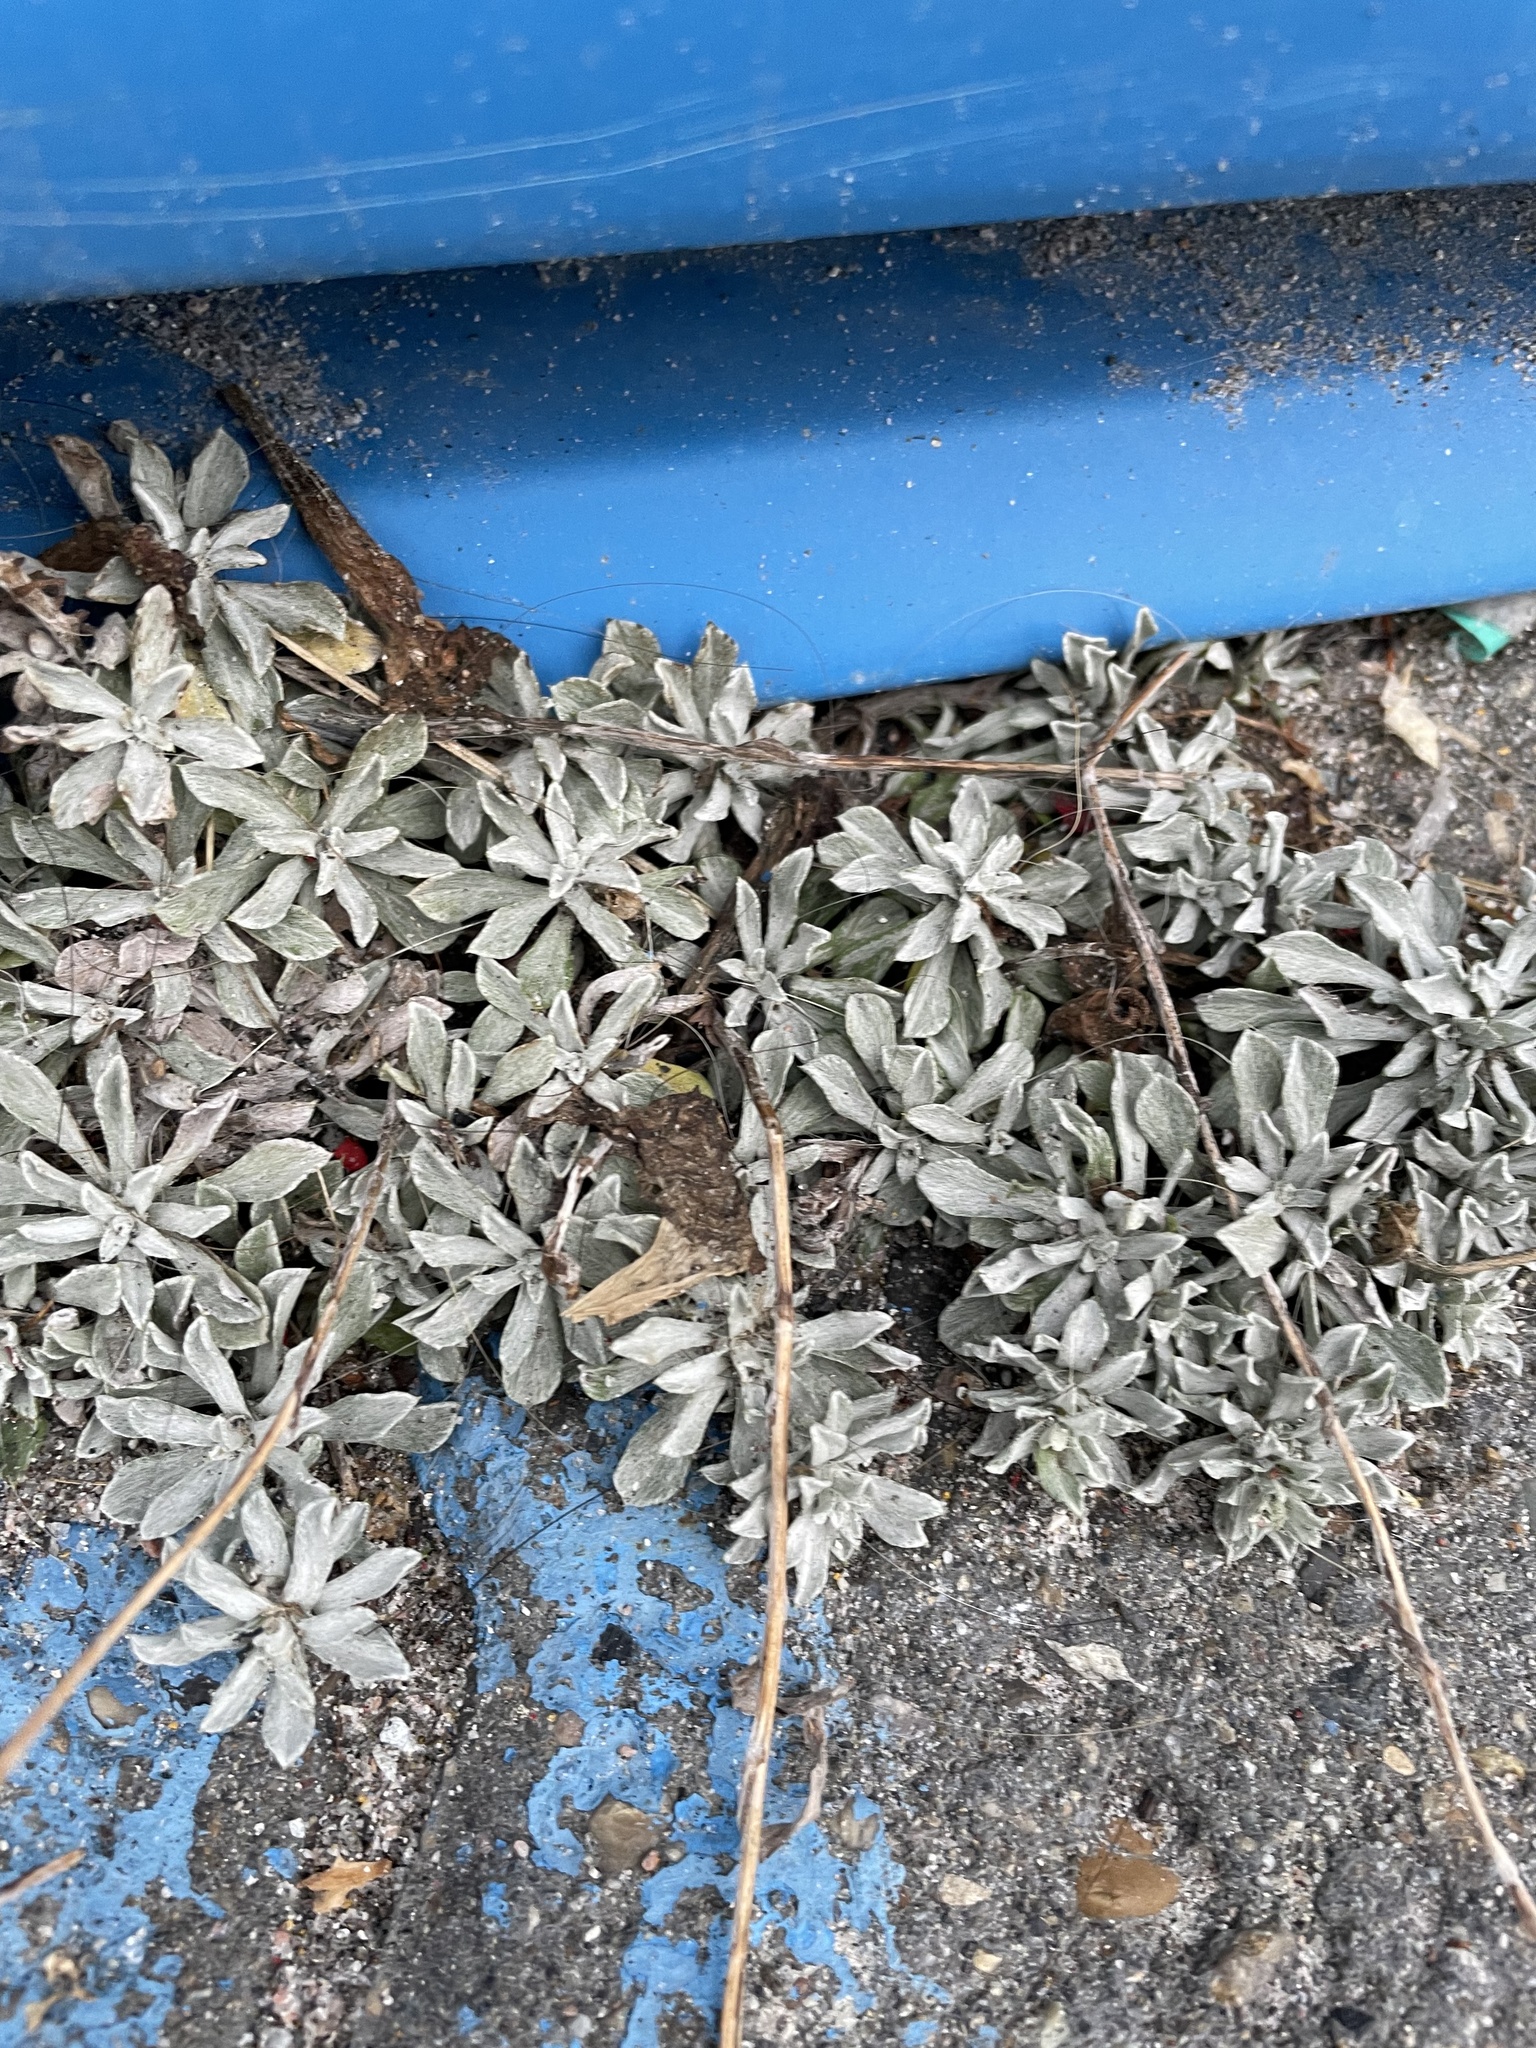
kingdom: Plantae
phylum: Tracheophyta
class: Magnoliopsida
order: Asterales
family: Asteraceae
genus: Antennaria
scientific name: Antennaria rosea
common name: Rosy pussytoes
